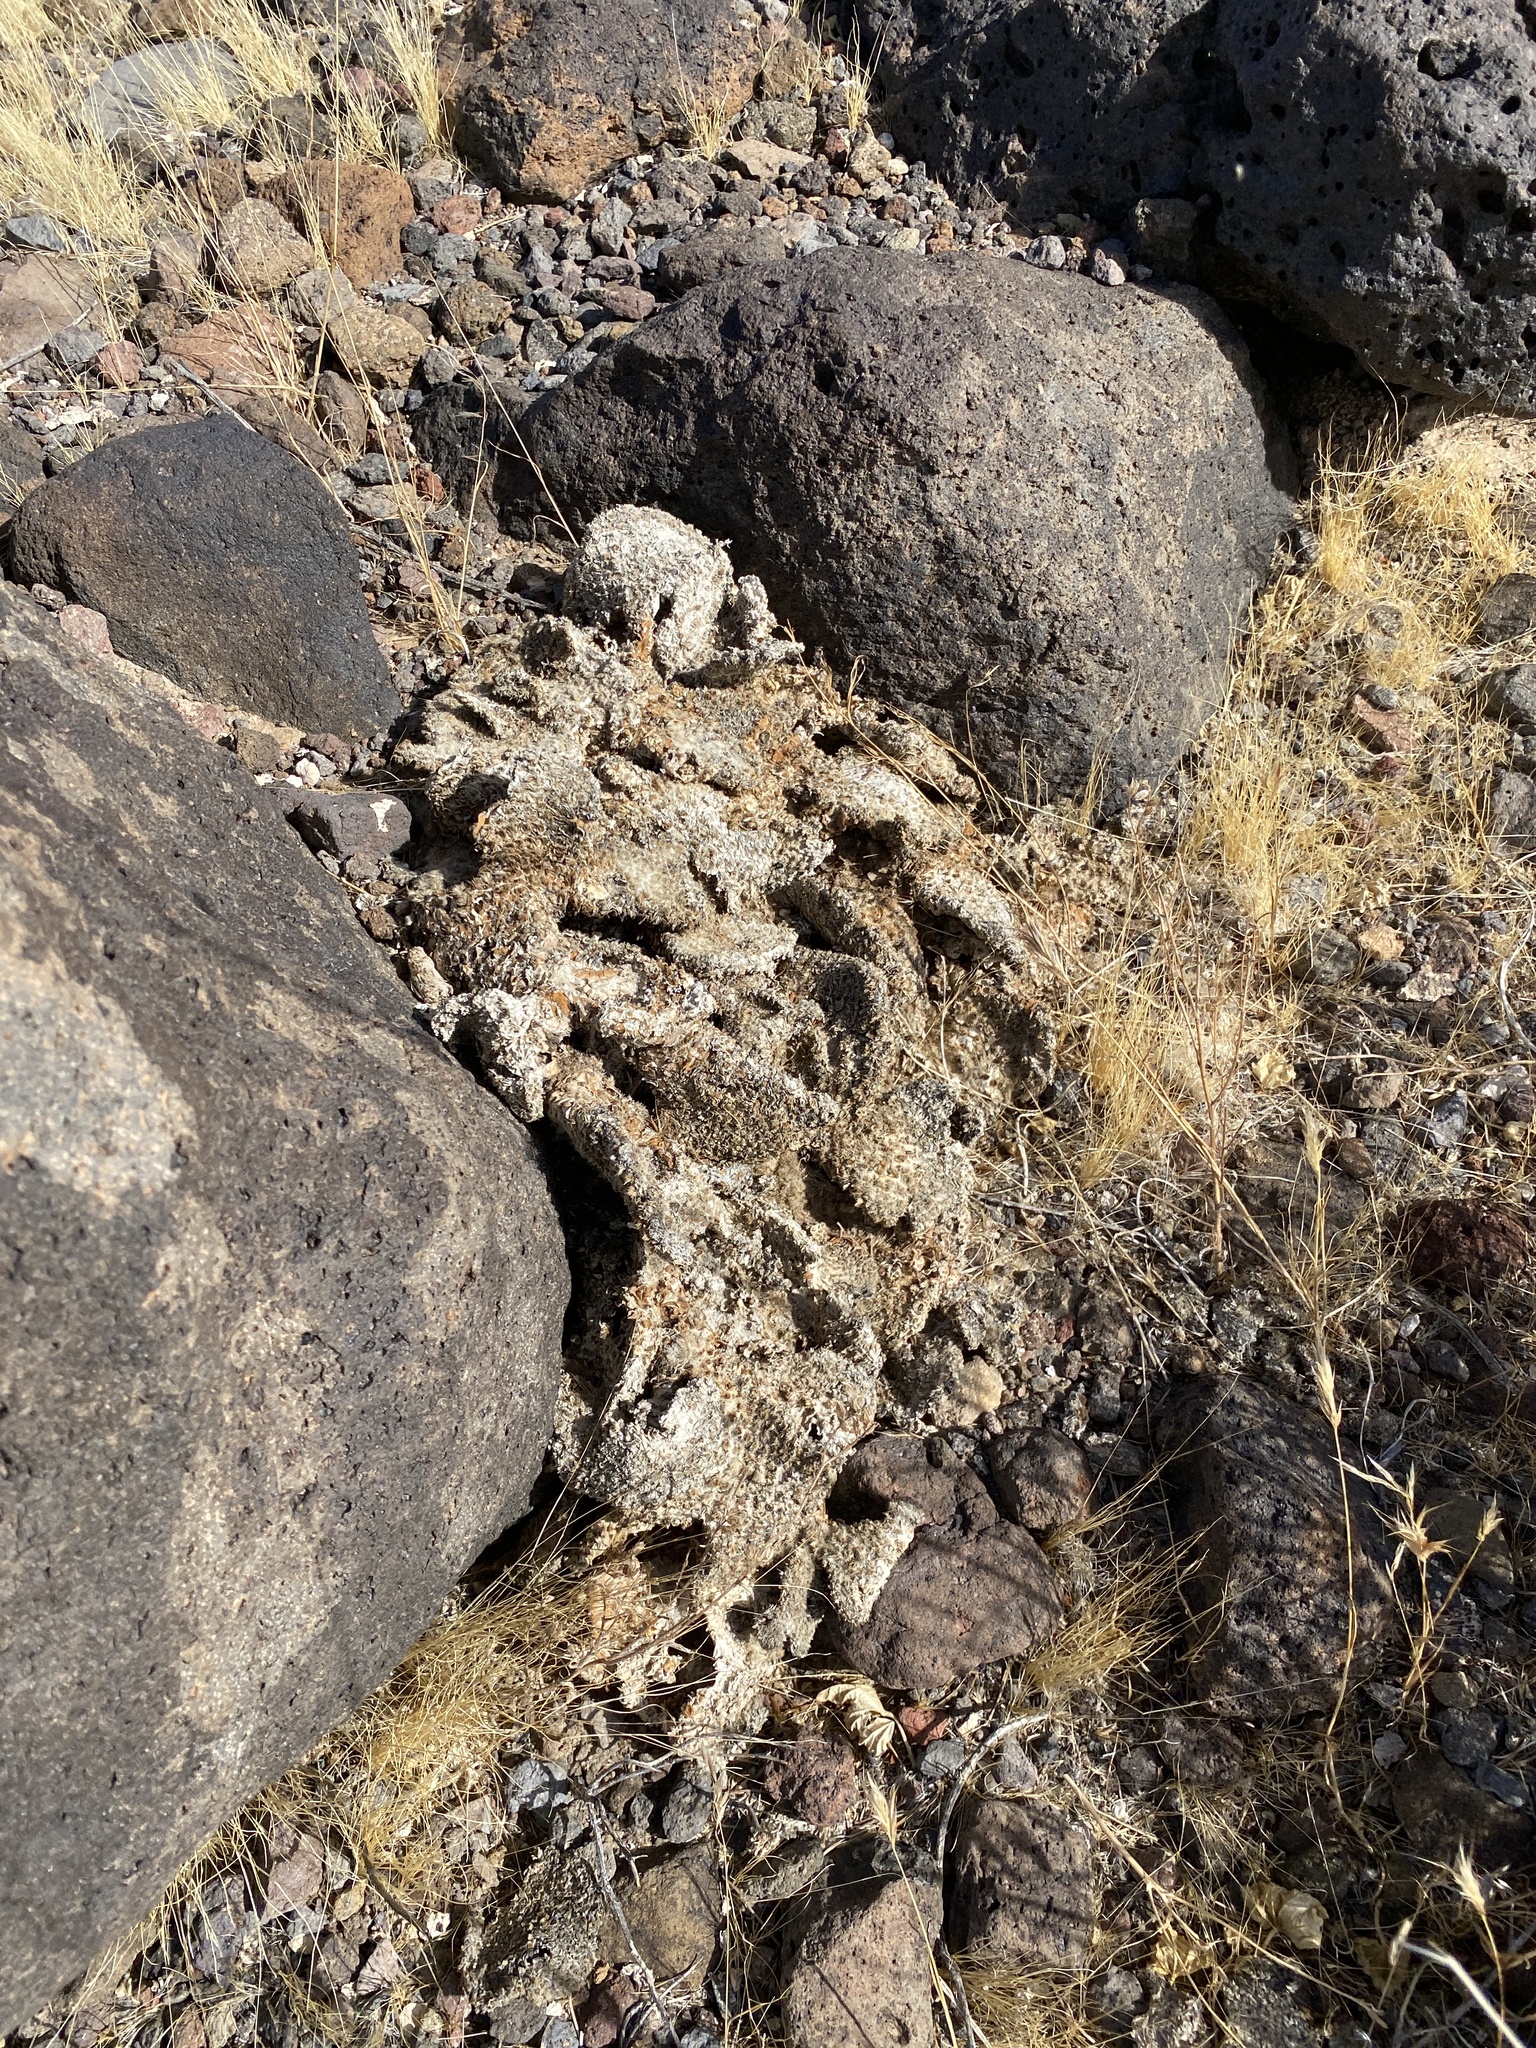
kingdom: Plantae
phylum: Tracheophyta
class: Magnoliopsida
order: Caryophyllales
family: Cactaceae
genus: Opuntia
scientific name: Opuntia basilaris
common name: Beavertail prickly-pear
